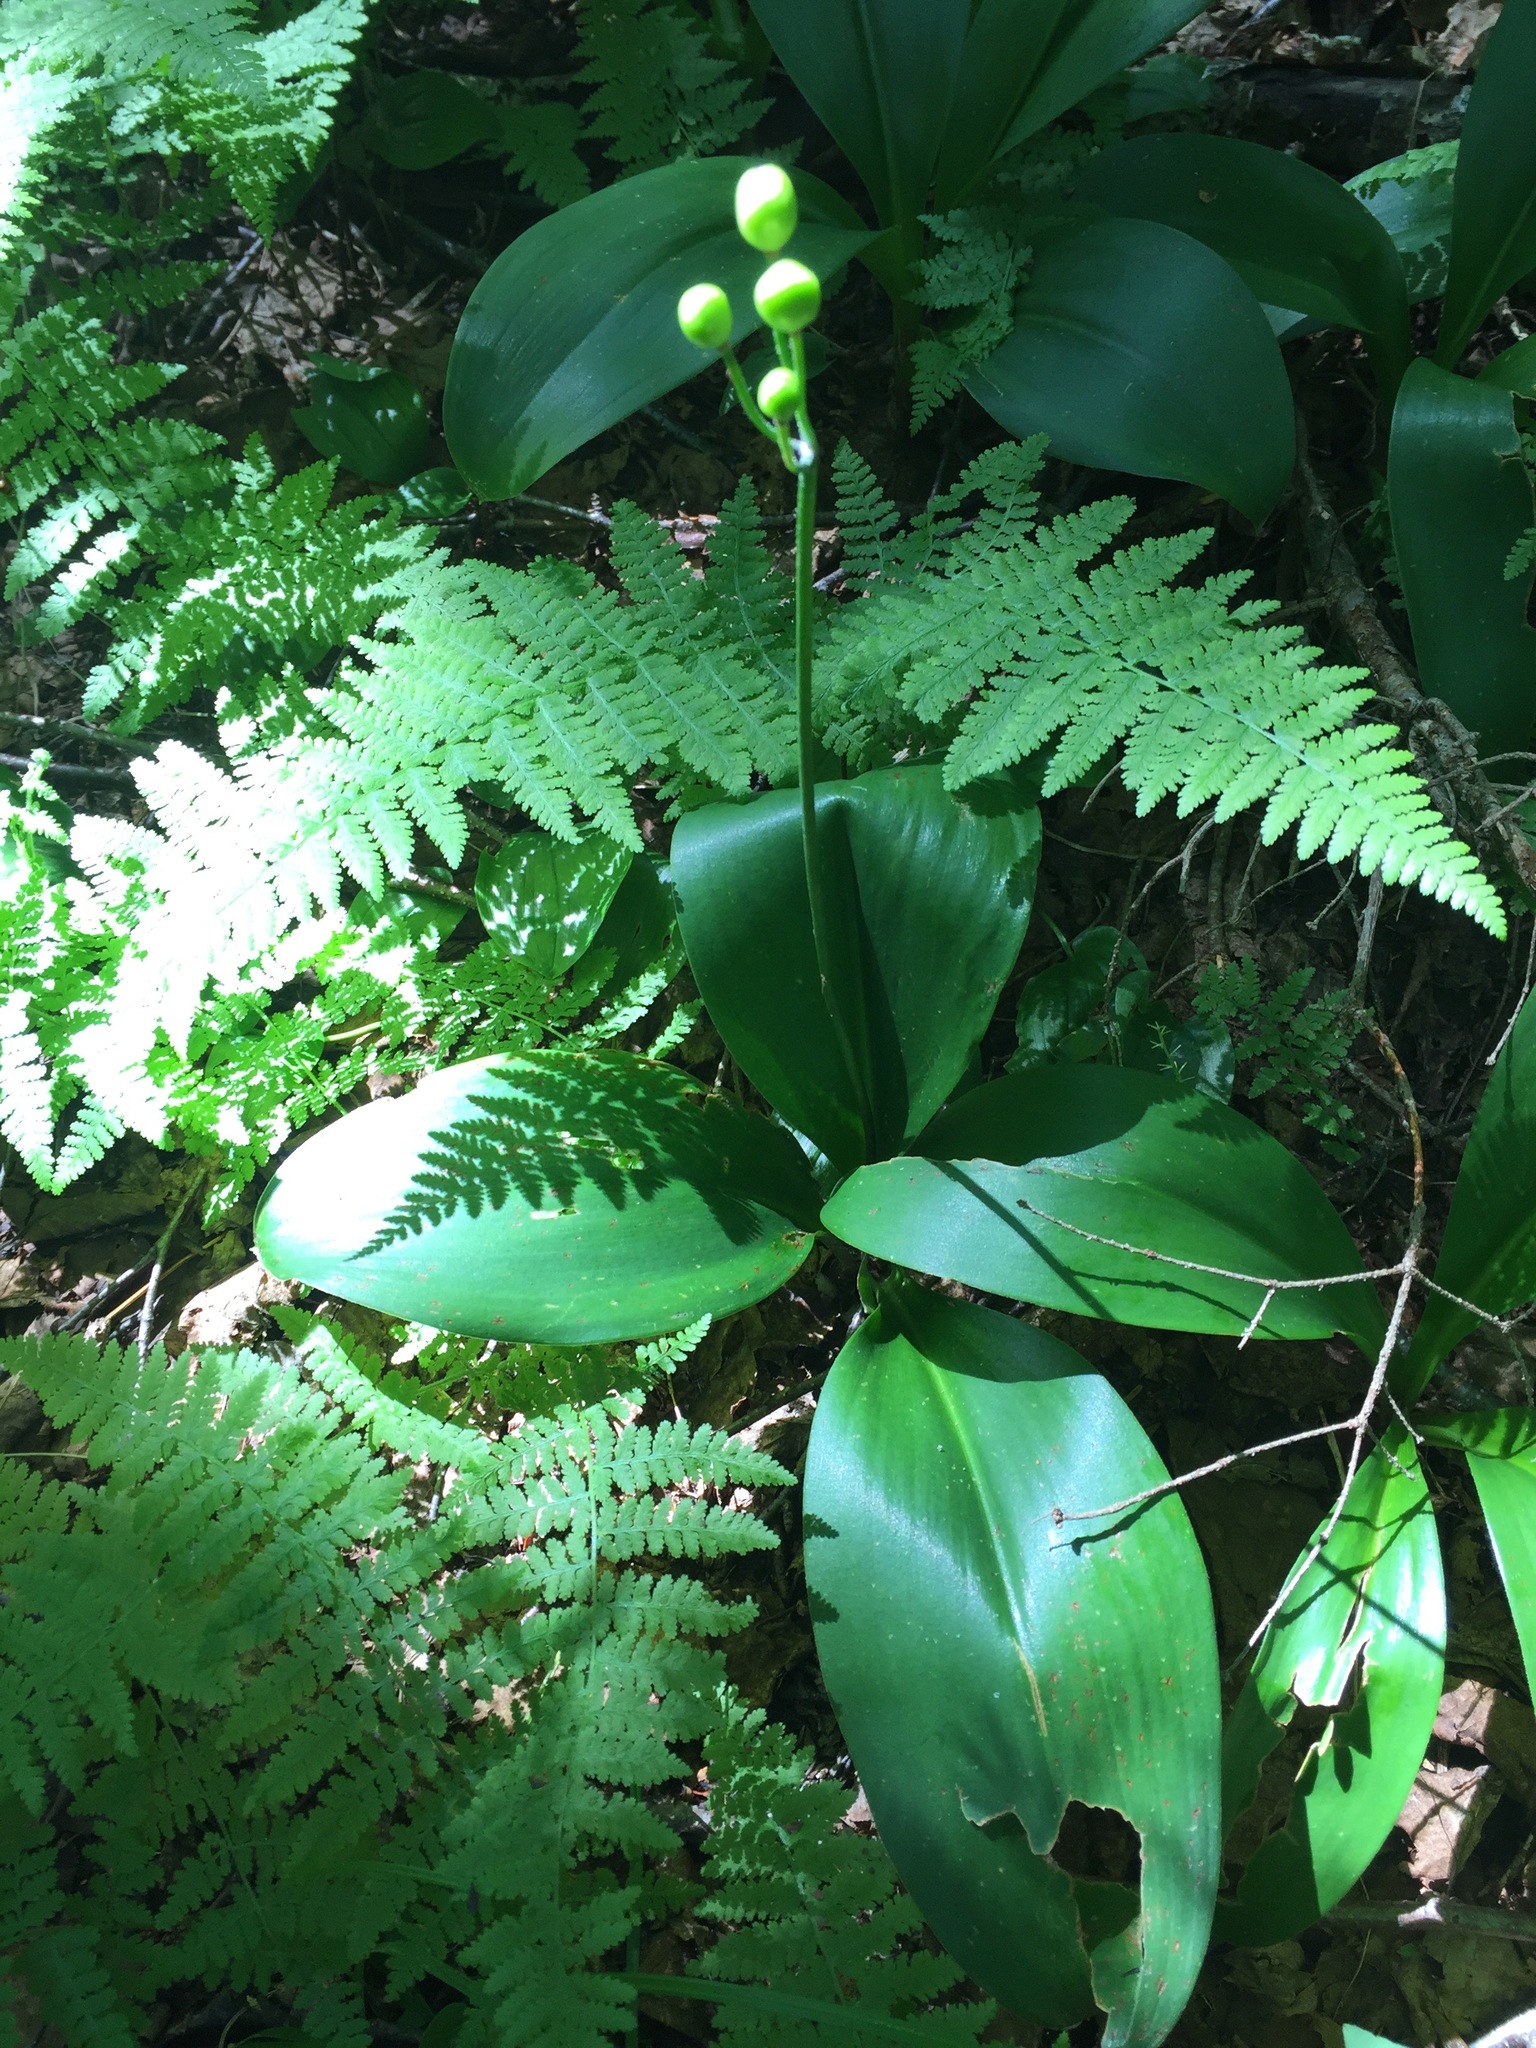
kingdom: Plantae
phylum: Tracheophyta
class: Liliopsida
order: Liliales
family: Liliaceae
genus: Clintonia
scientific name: Clintonia borealis
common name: Yellow clintonia
